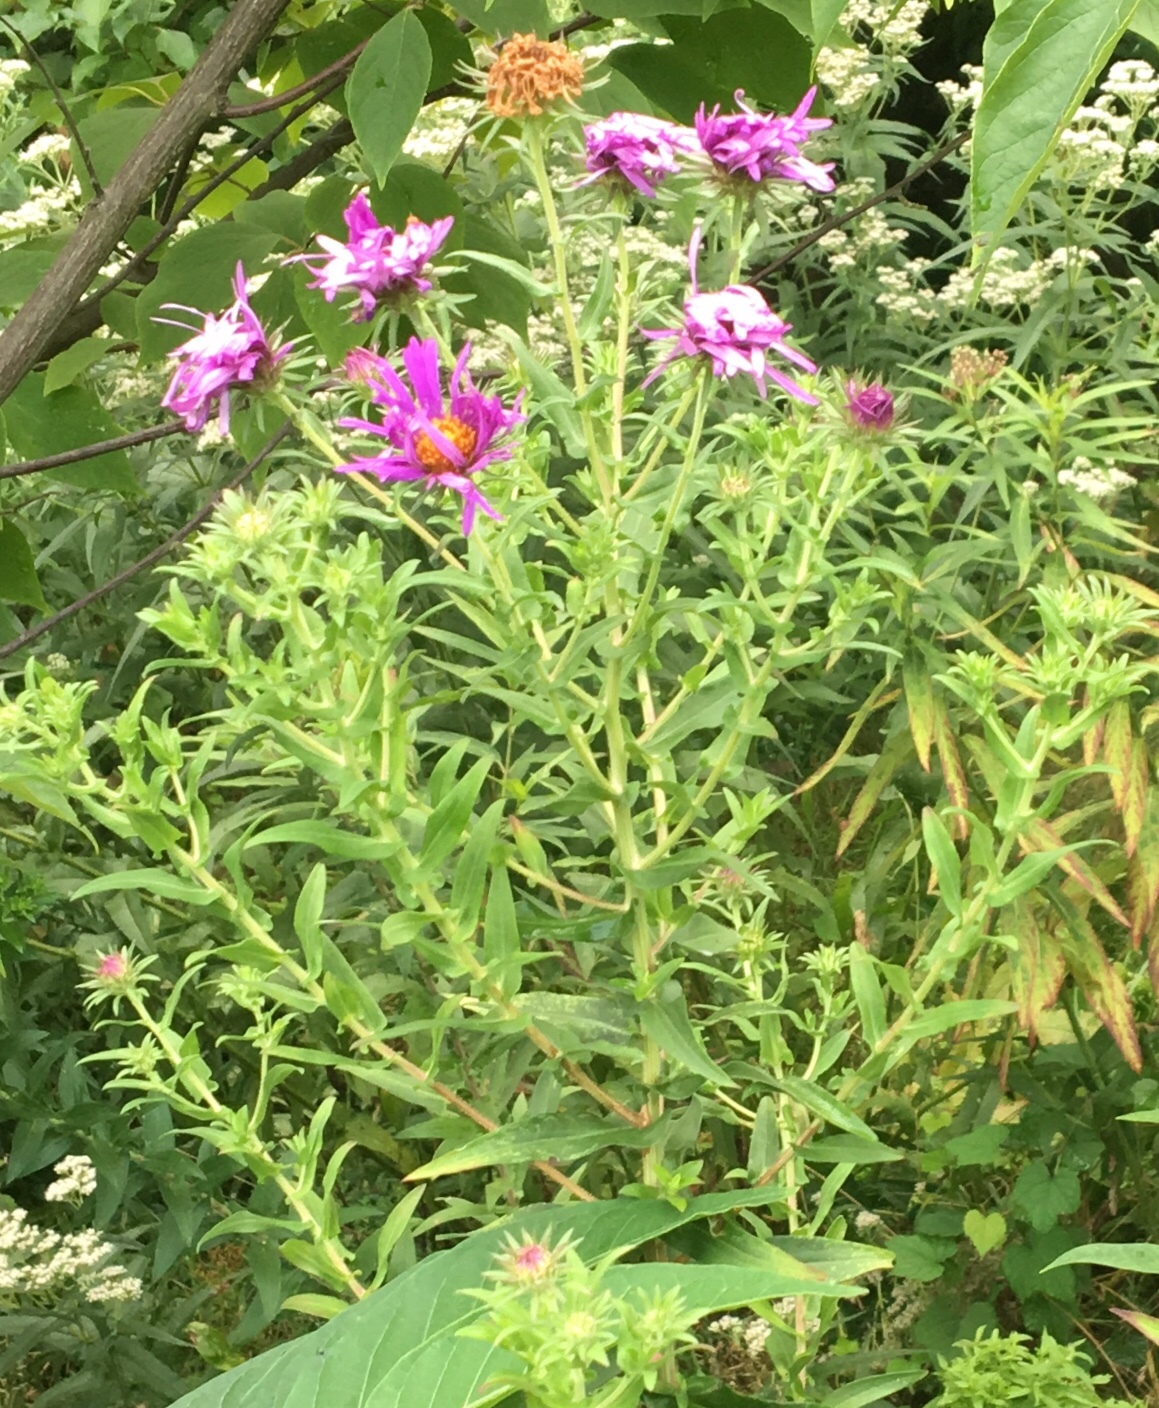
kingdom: Plantae
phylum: Tracheophyta
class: Magnoliopsida
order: Asterales
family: Asteraceae
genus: Symphyotrichum
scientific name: Symphyotrichum novae-angliae
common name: Michaelmas daisy
